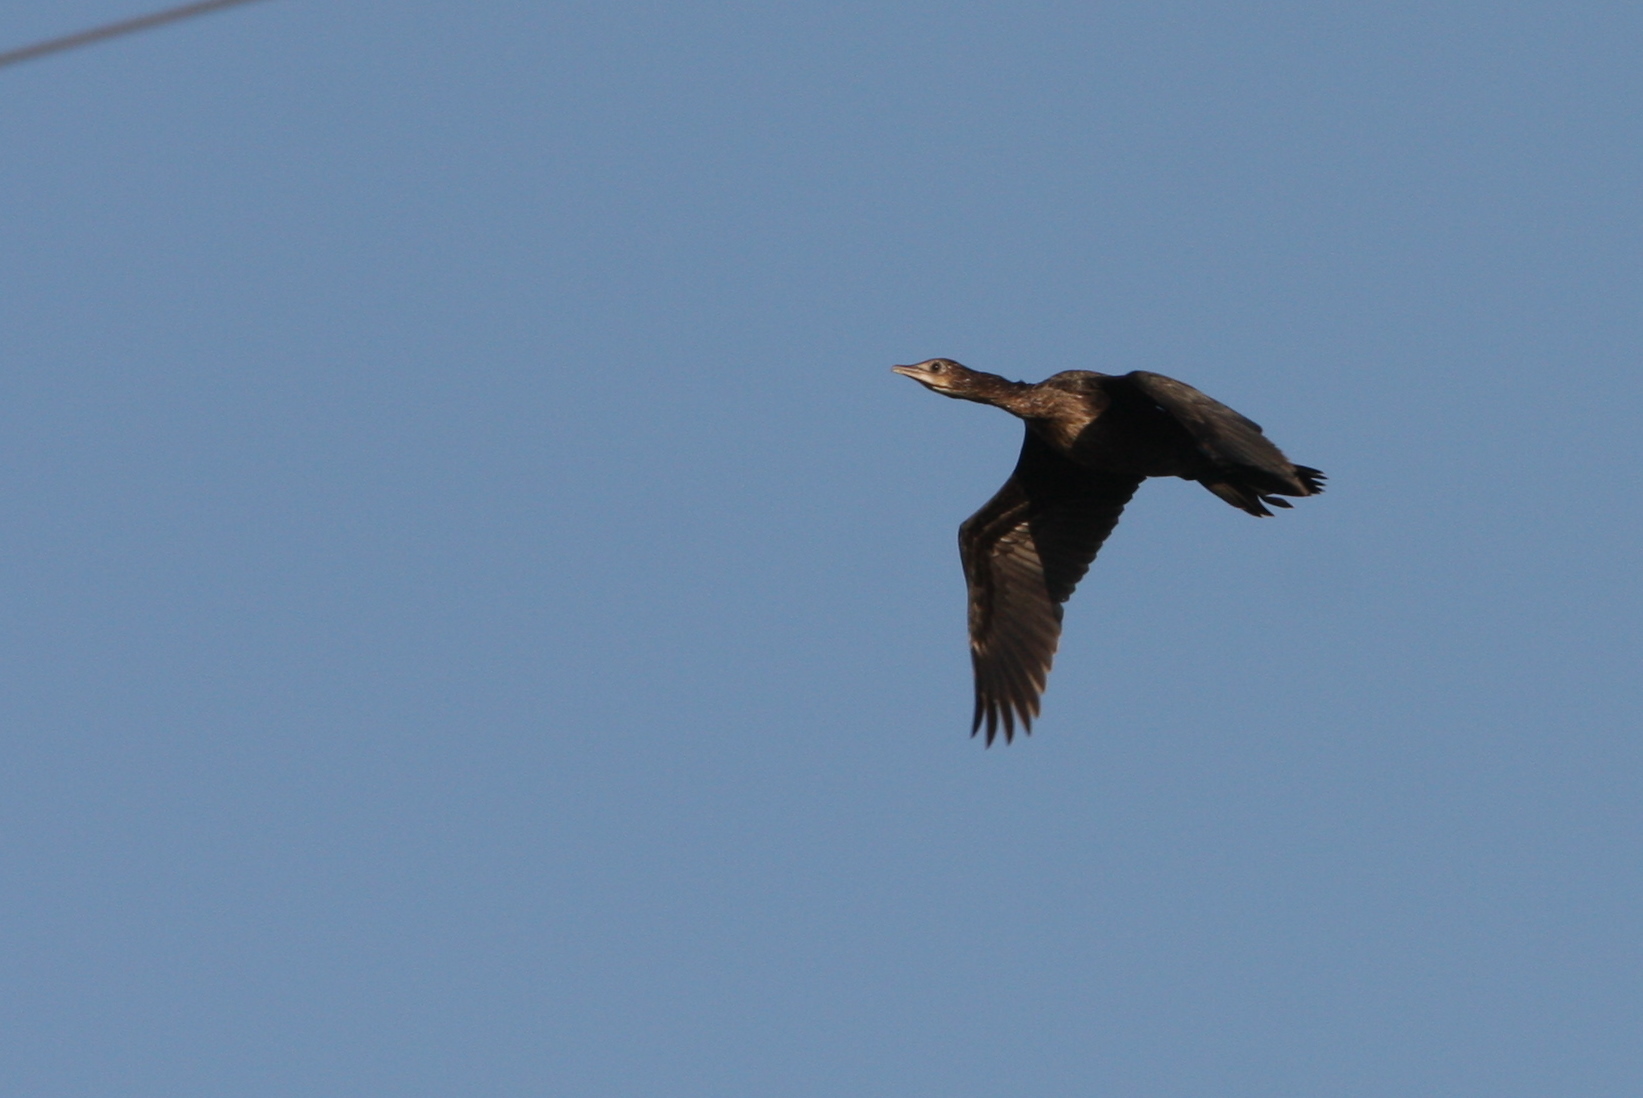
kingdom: Animalia
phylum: Chordata
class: Aves
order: Suliformes
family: Phalacrocoracidae
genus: Microcarbo
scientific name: Microcarbo pygmaeus
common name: Pygmy cormorant
